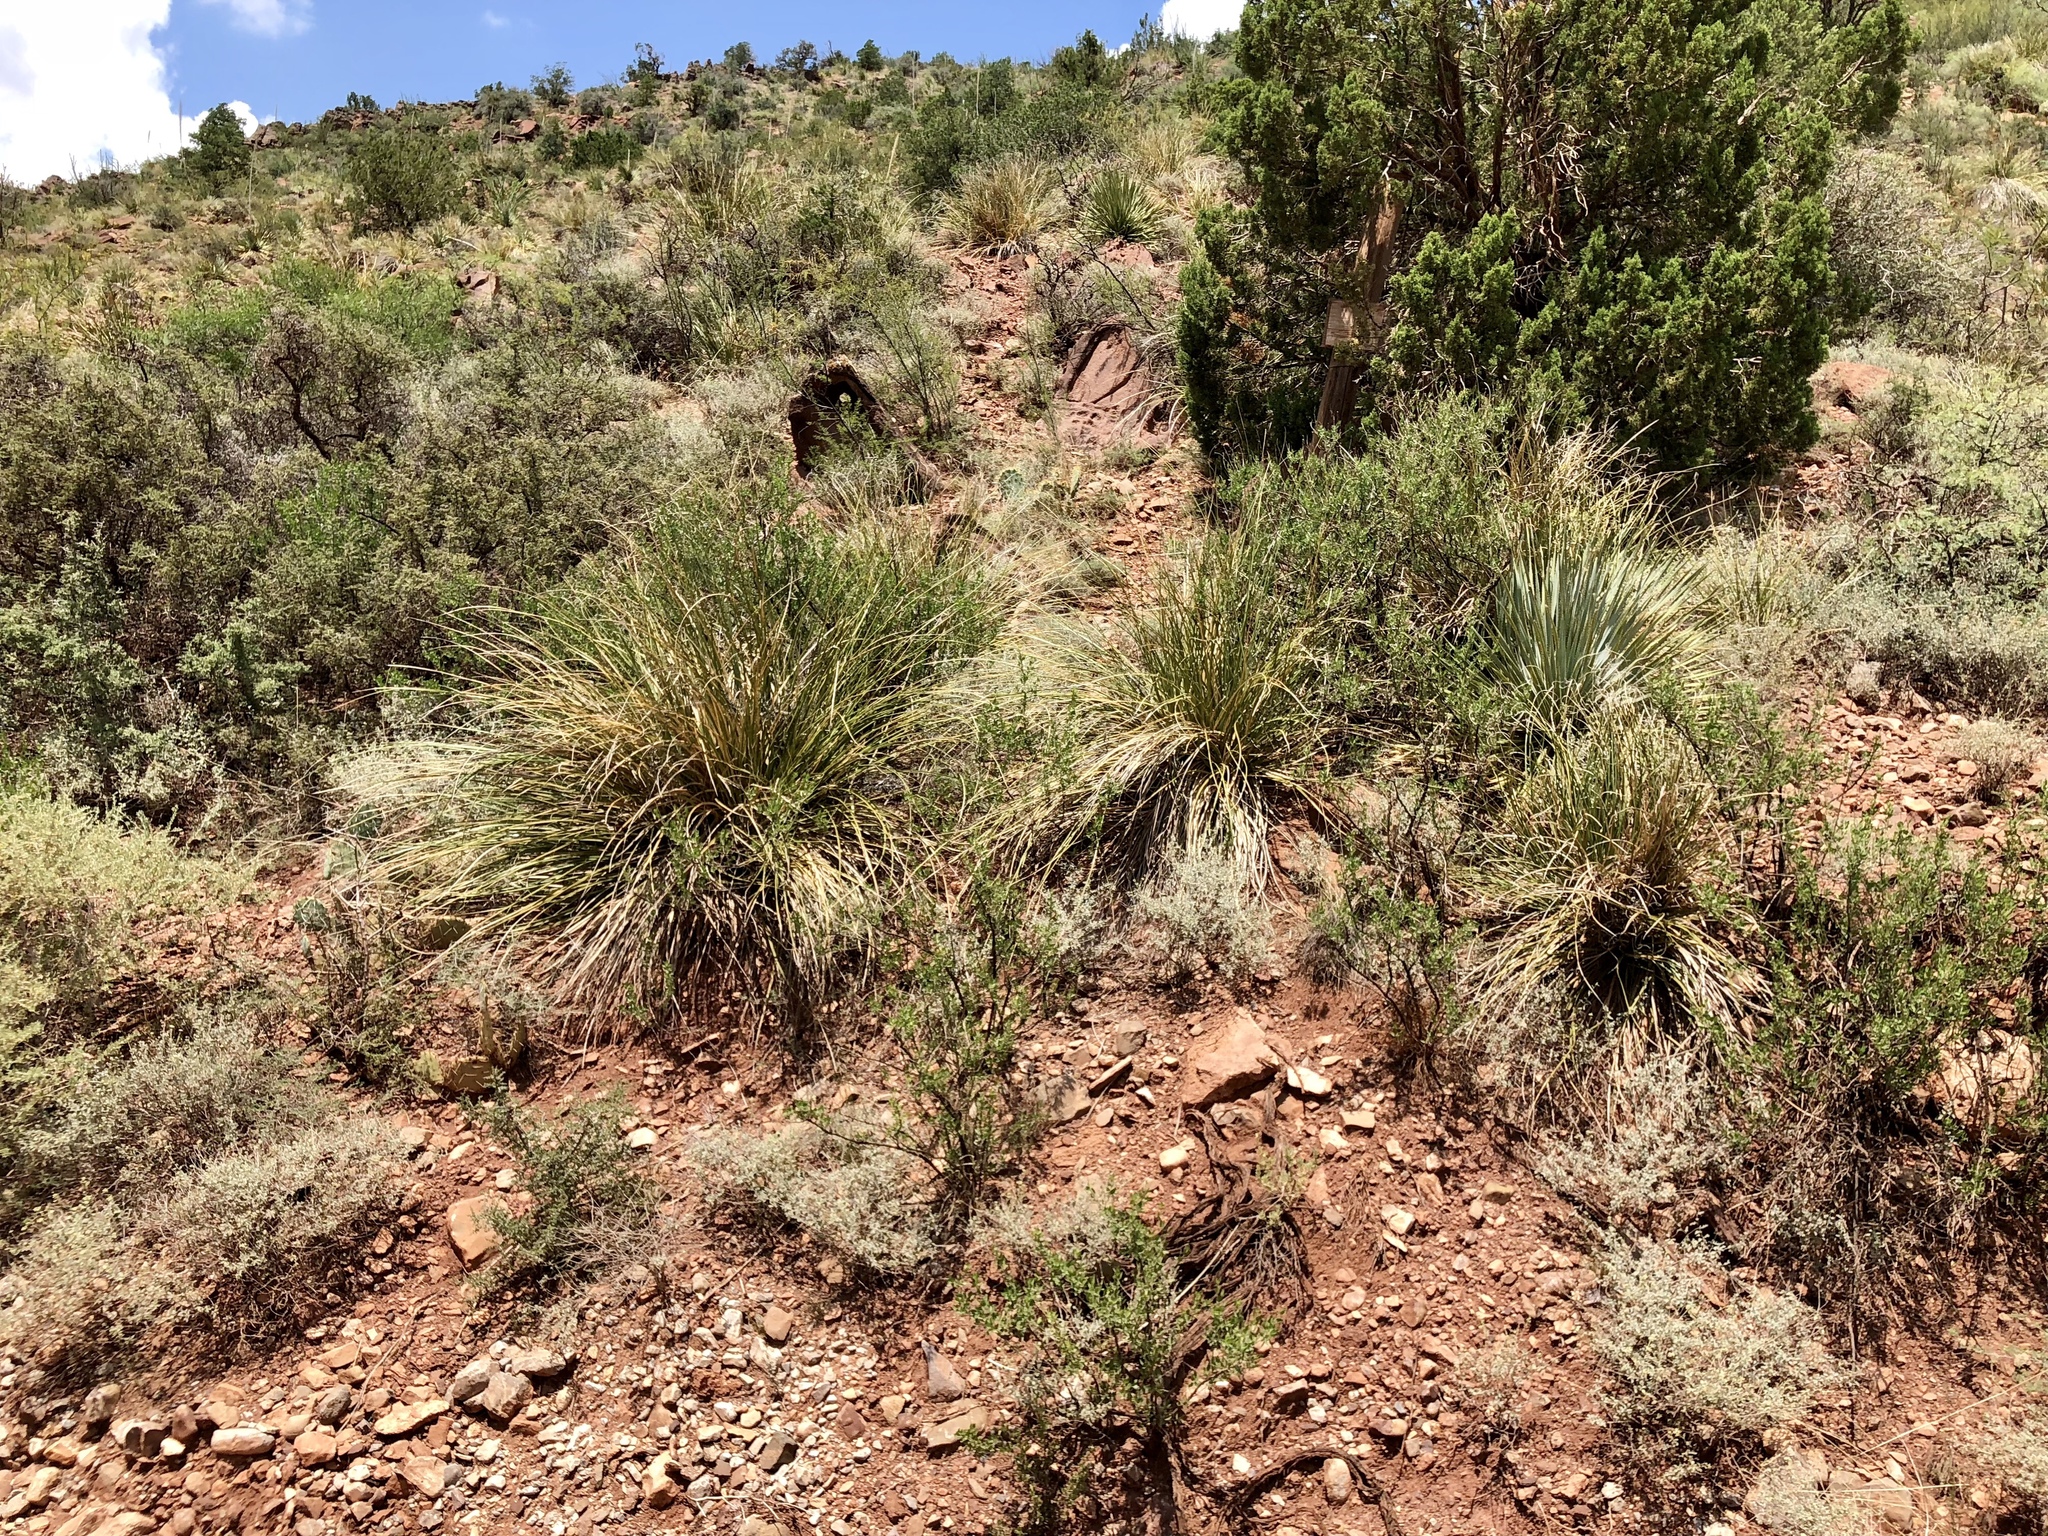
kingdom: Plantae
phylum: Tracheophyta
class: Liliopsida
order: Asparagales
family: Asparagaceae
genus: Nolina
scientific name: Nolina microcarpa
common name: Bear-grass
